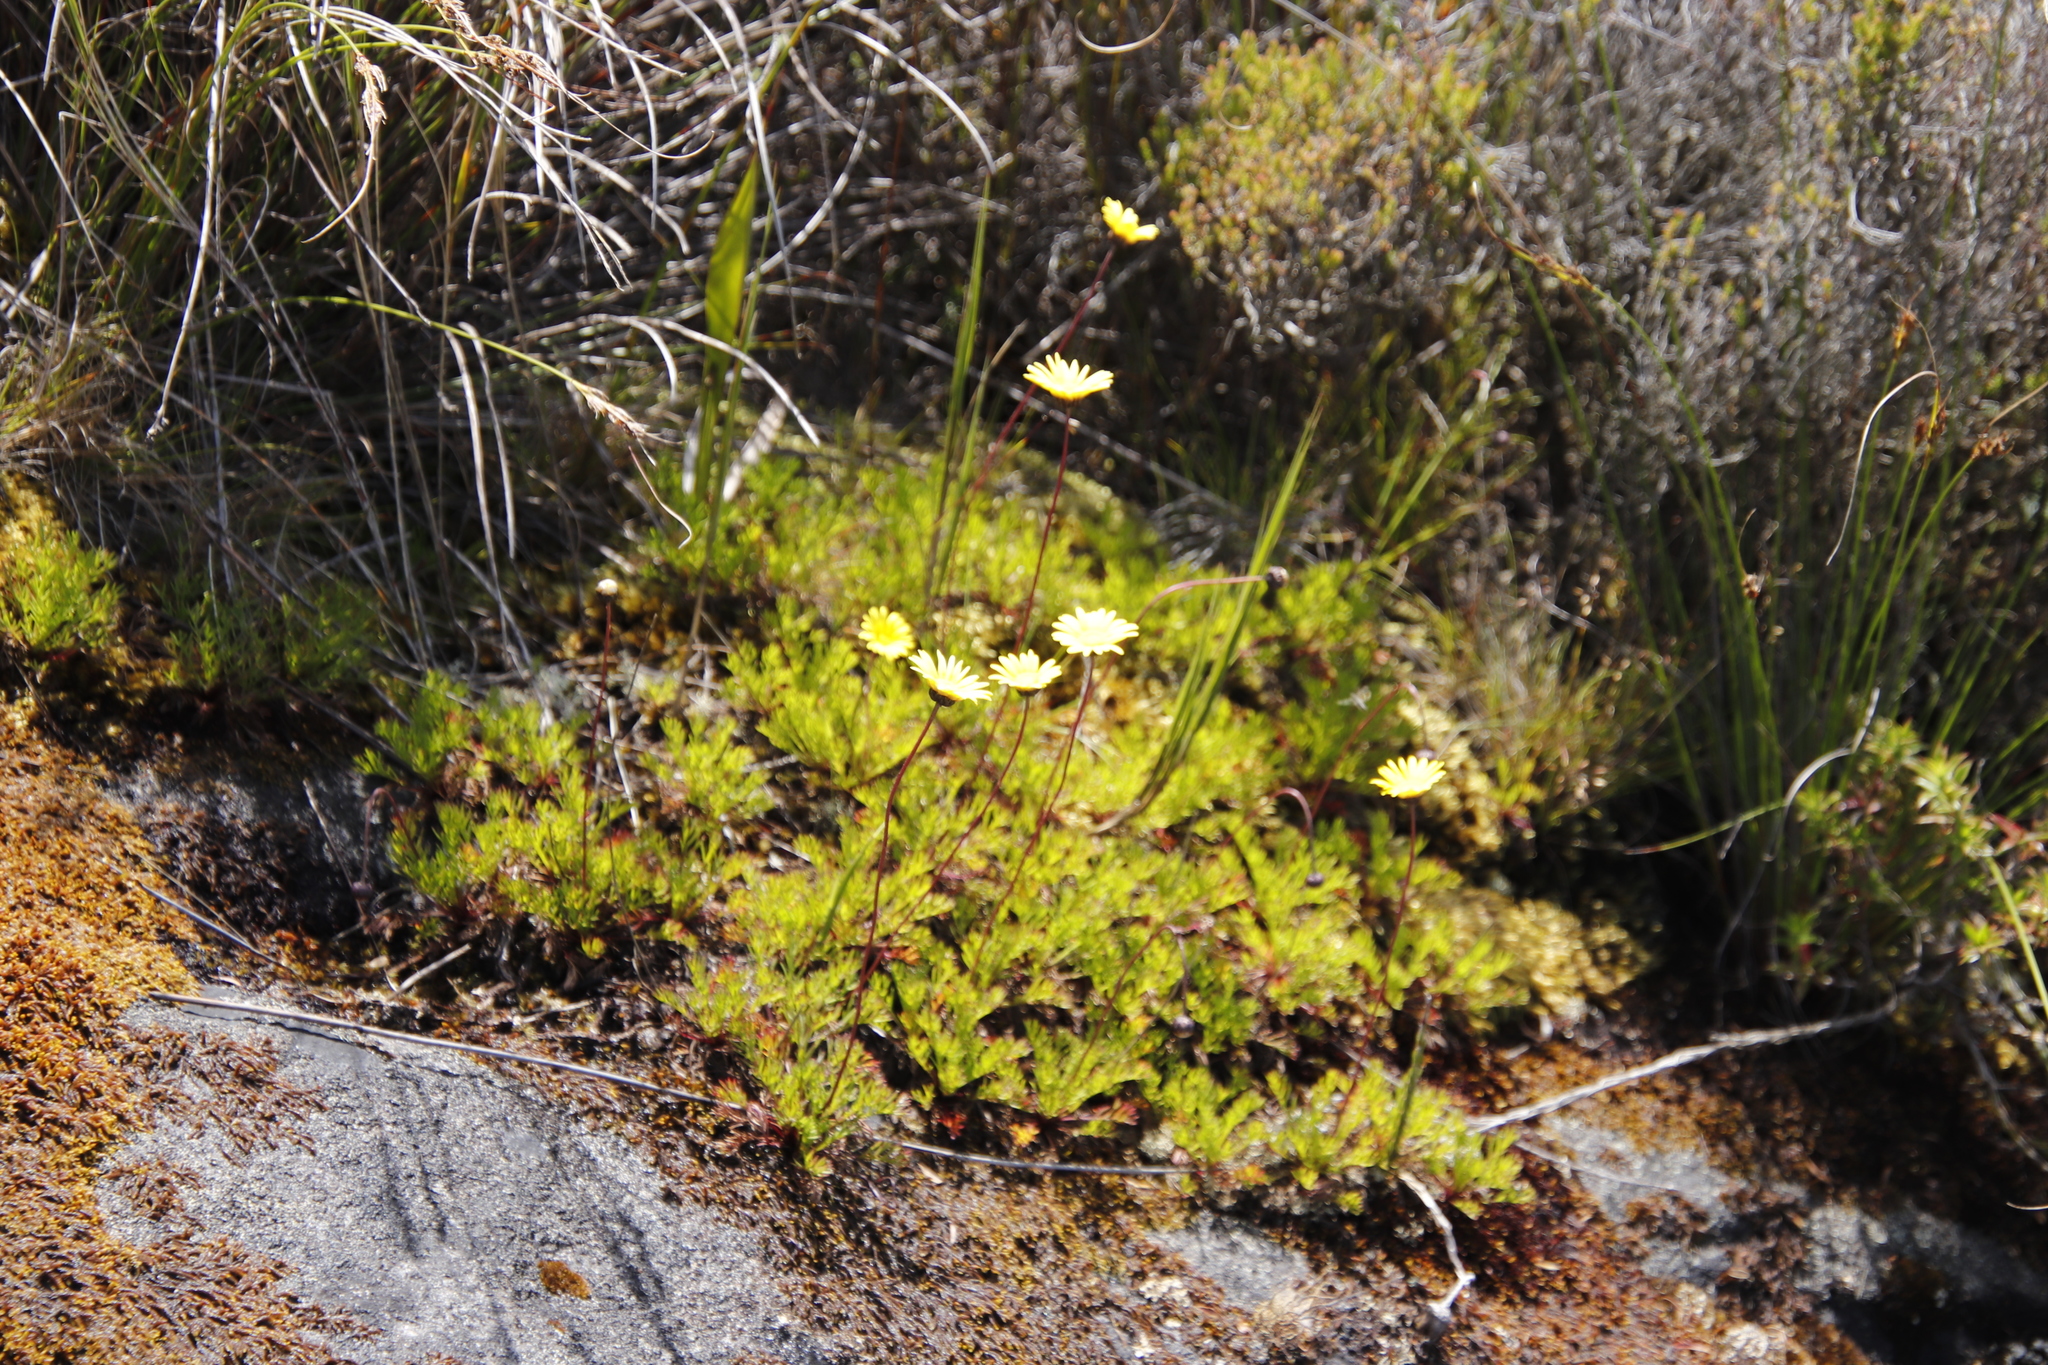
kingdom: Plantae
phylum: Tracheophyta
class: Magnoliopsida
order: Asterales
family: Asteraceae
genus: Ursinia
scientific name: Ursinia nudicaulis
